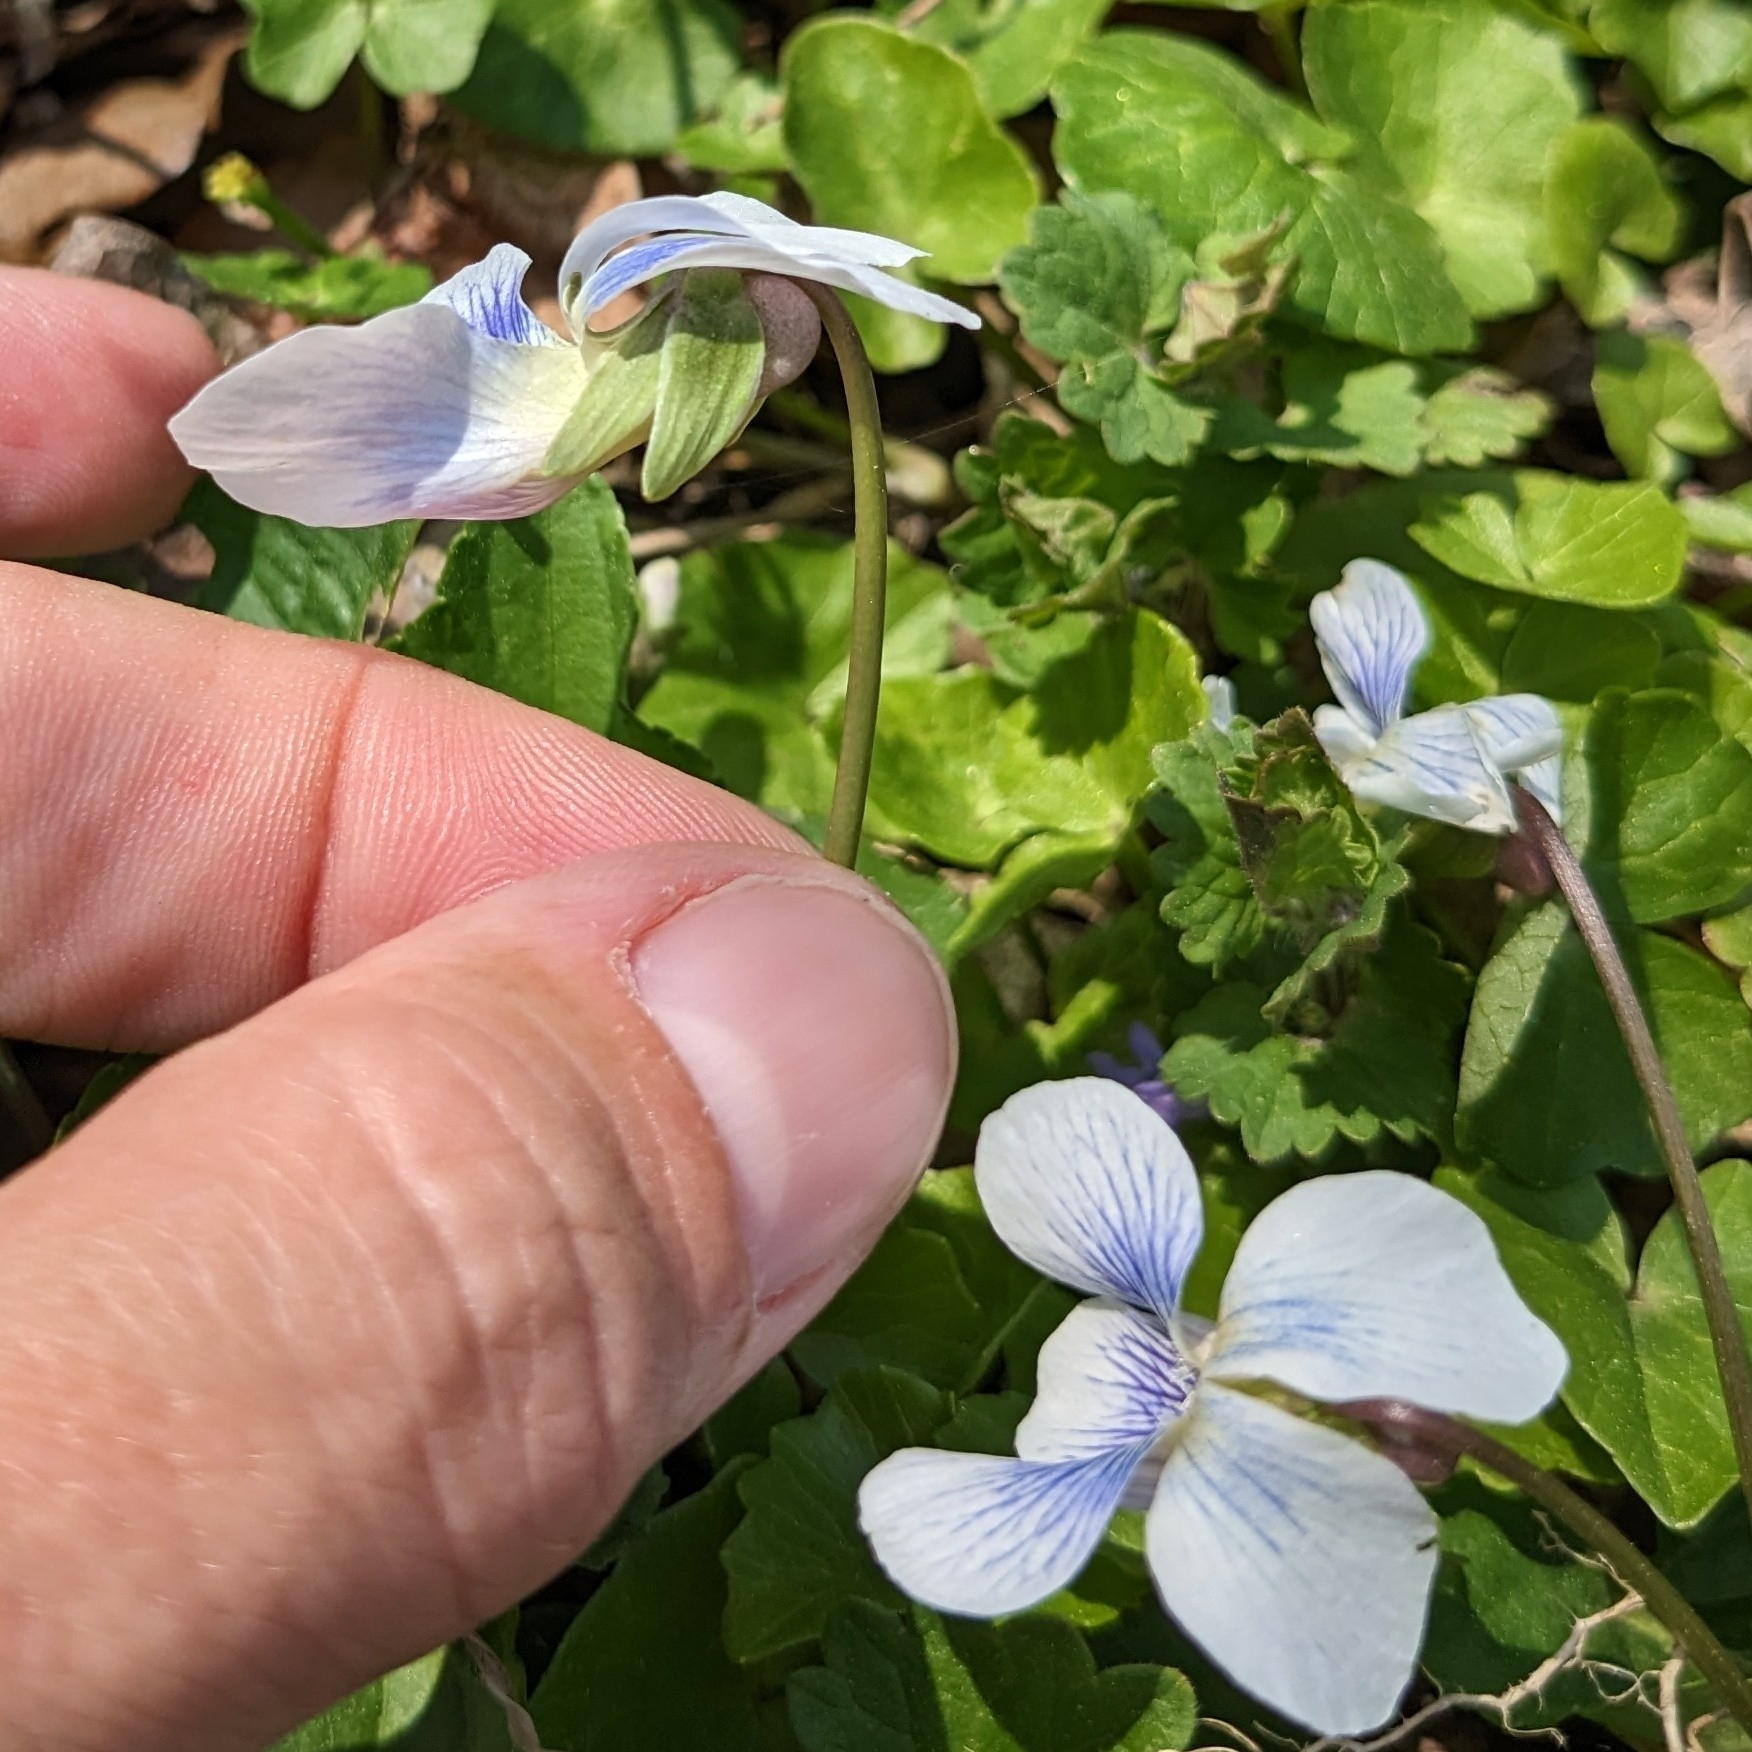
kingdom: Plantae
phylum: Tracheophyta
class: Magnoliopsida
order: Malpighiales
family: Violaceae
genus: Viola
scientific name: Viola sororia
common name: Dooryard violet
